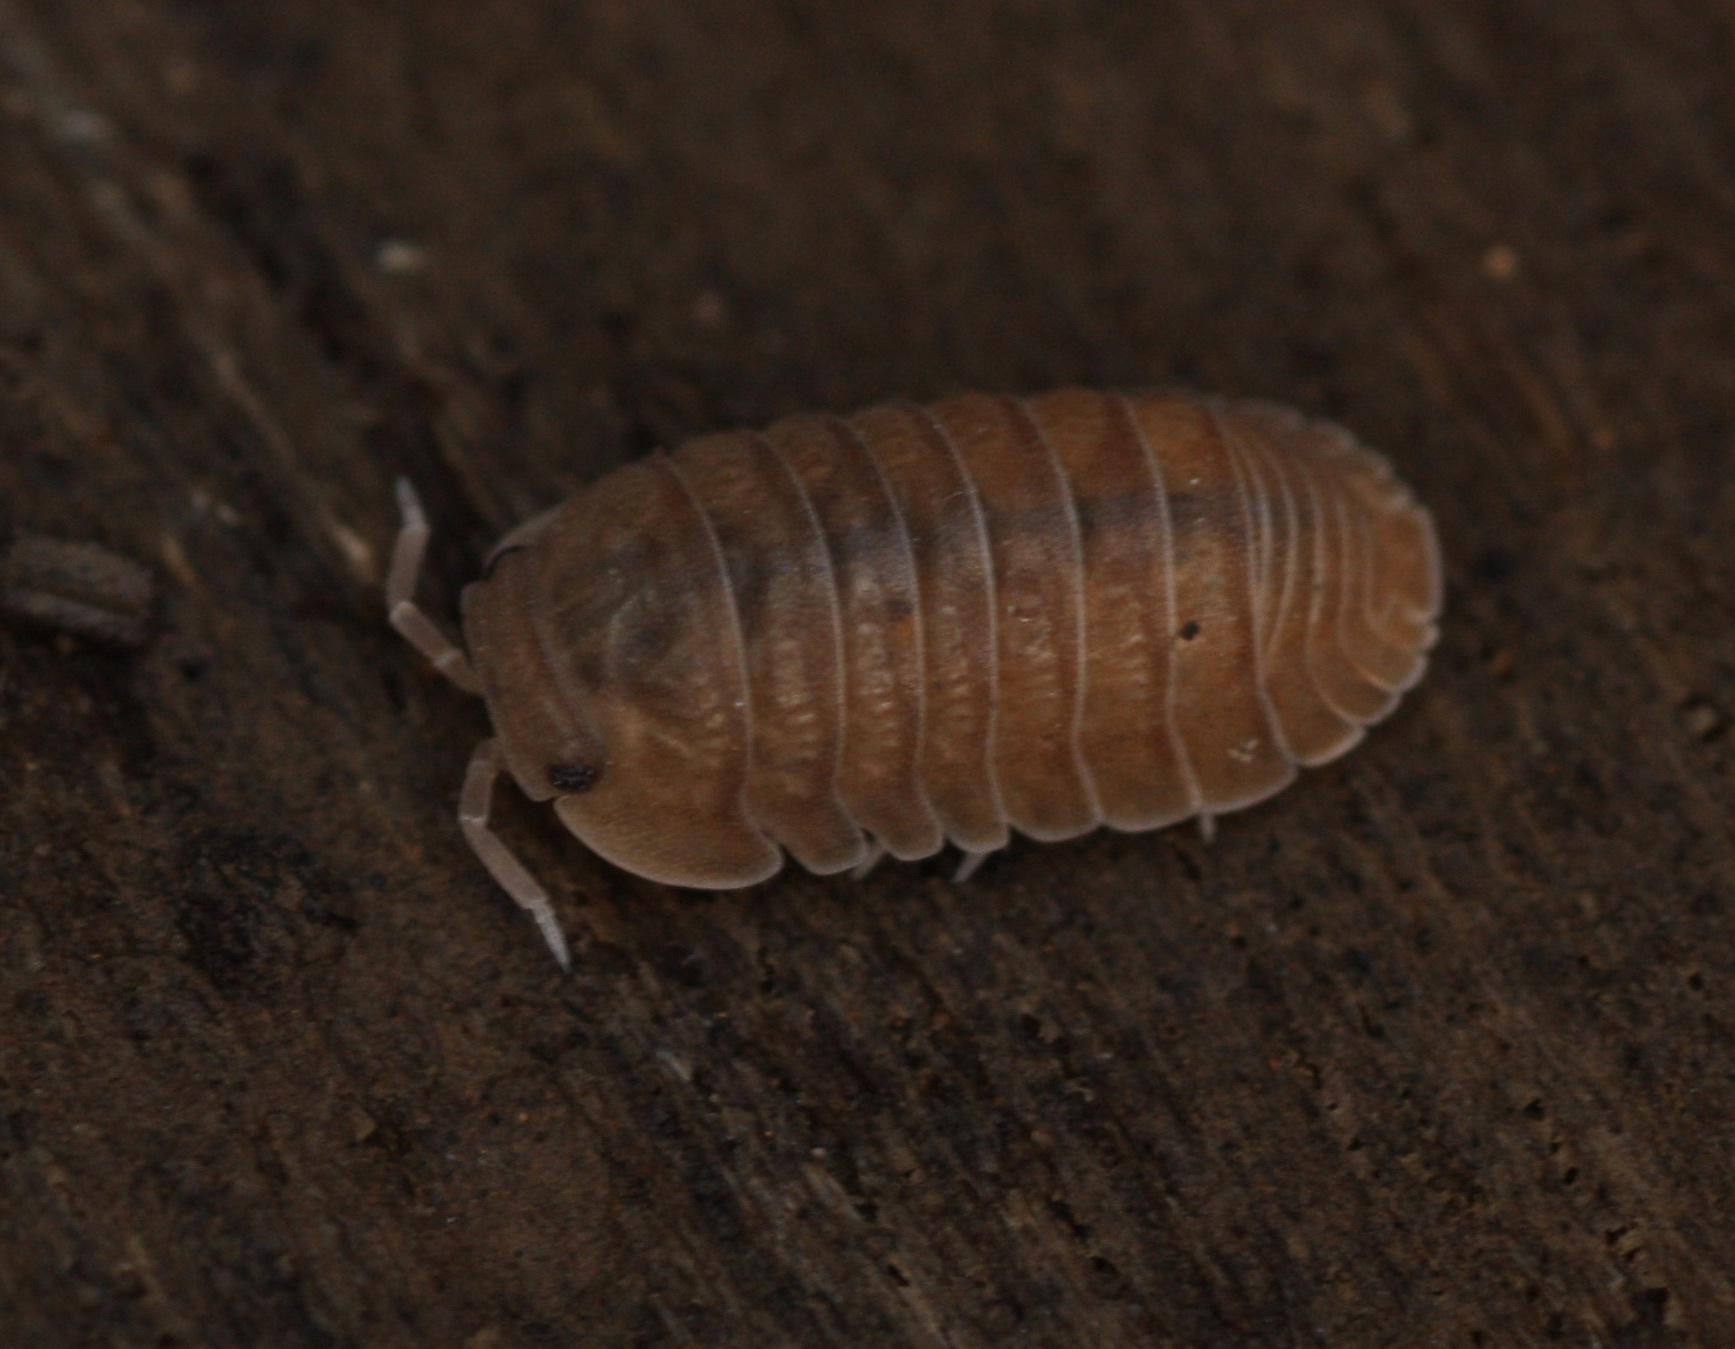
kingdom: Animalia
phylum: Arthropoda
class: Malacostraca
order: Isopoda
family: Armadillidae
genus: Cubaris
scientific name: Cubaris murina
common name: Pillbug
